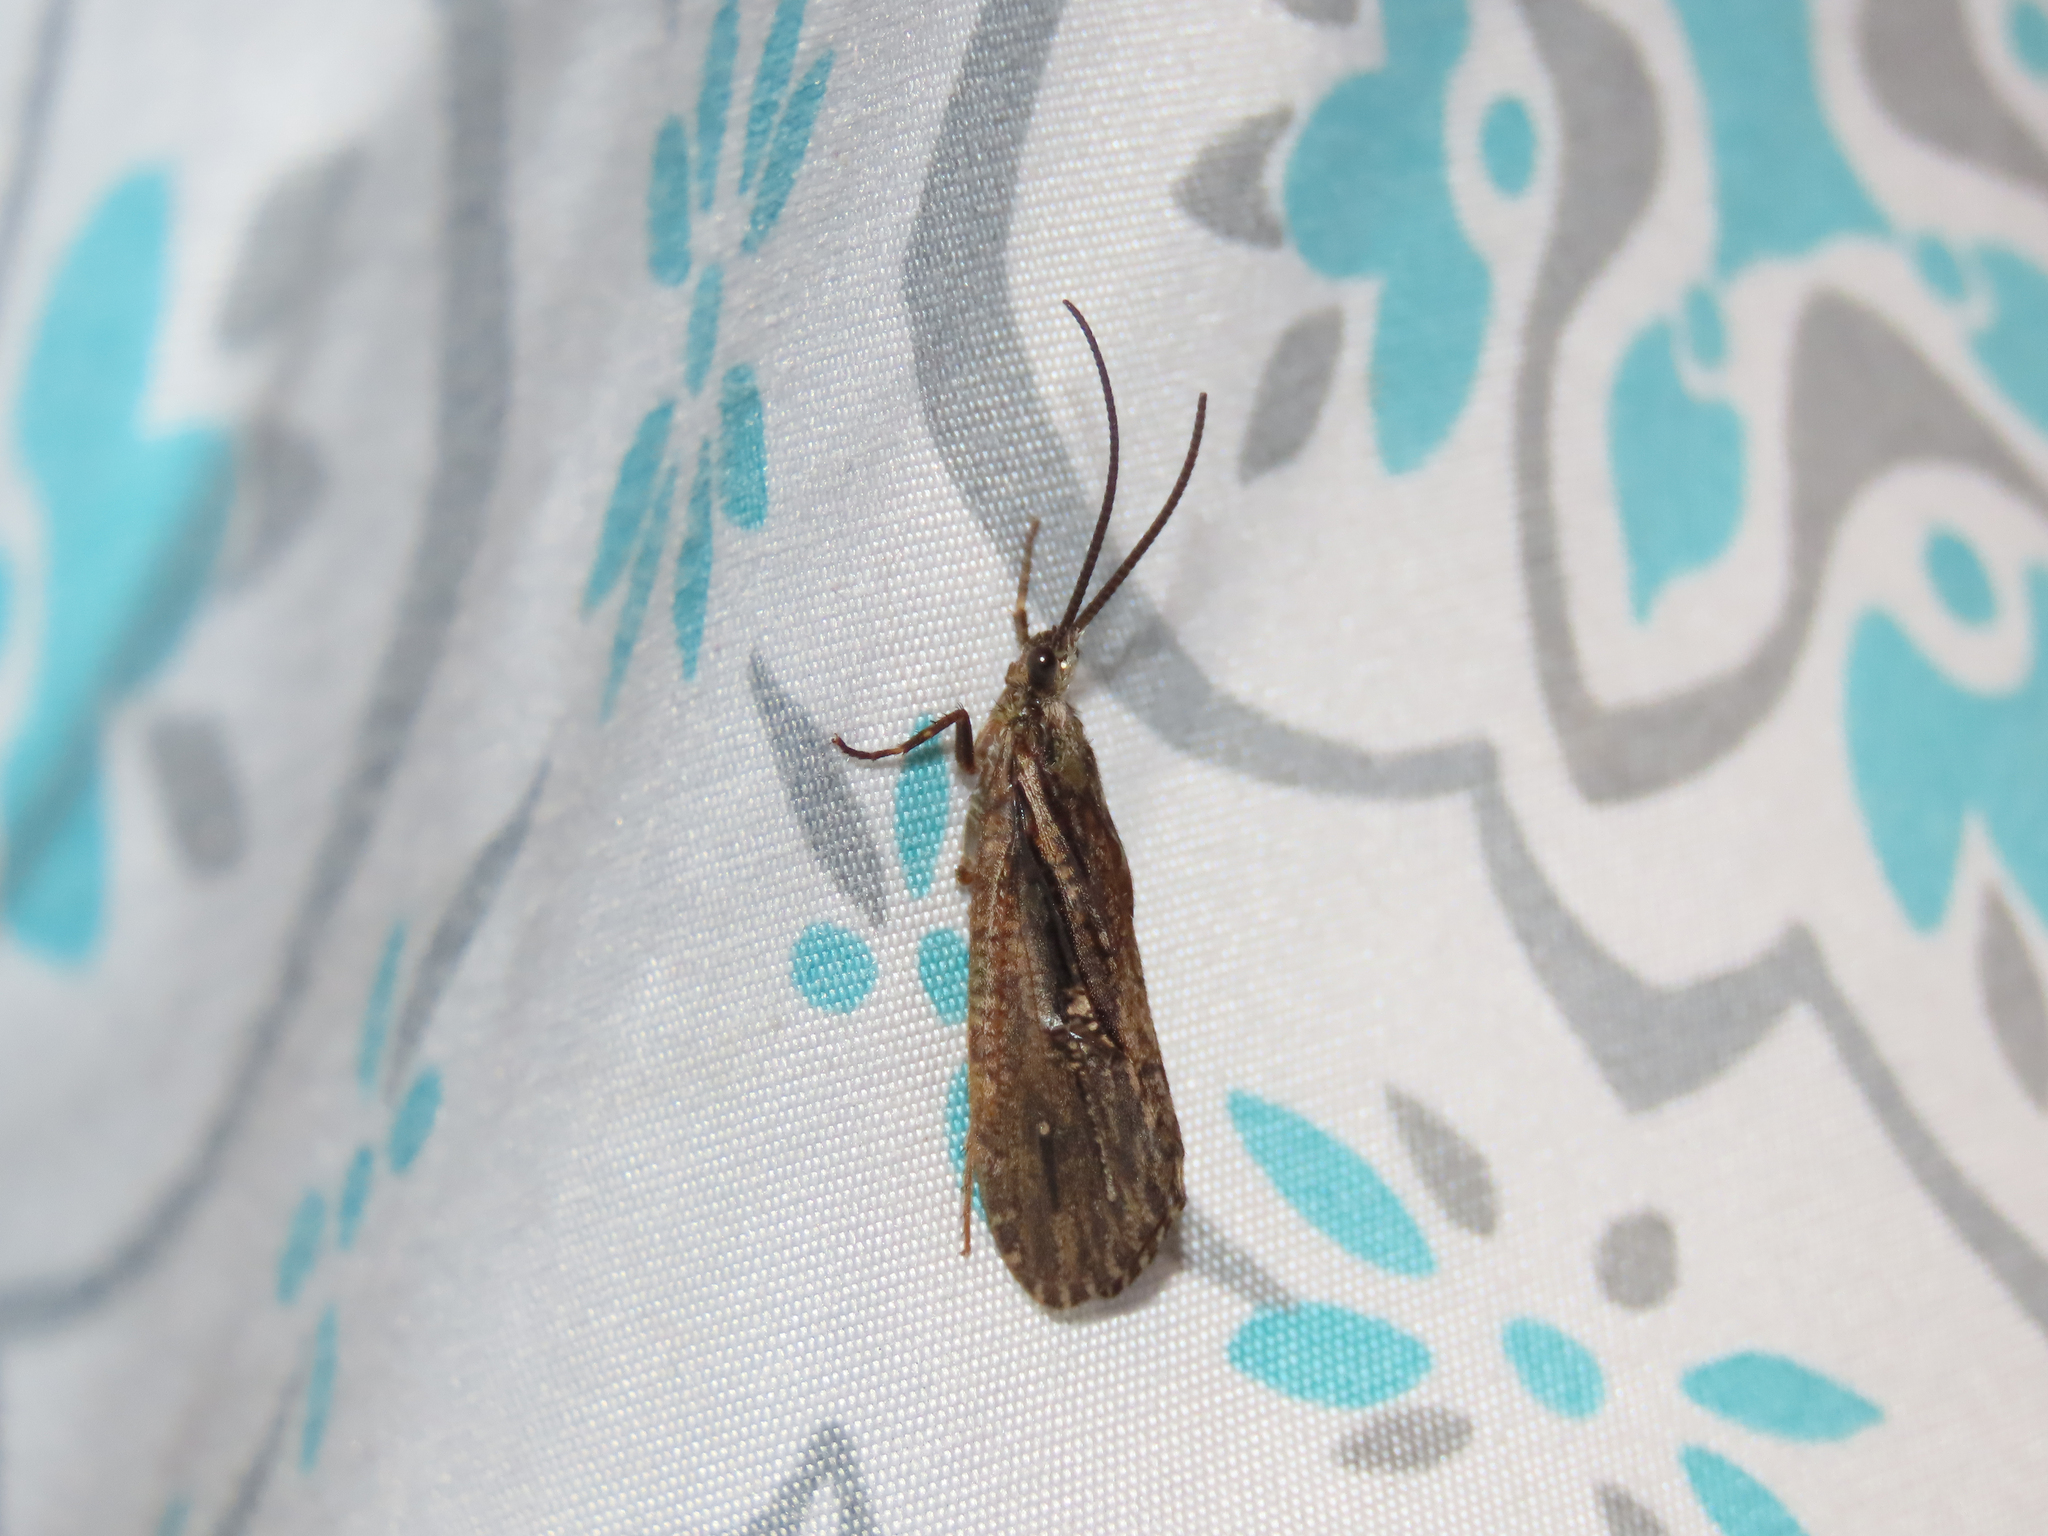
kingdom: Animalia
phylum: Arthropoda
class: Insecta
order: Trichoptera
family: Phryganeidae
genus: Phryganea
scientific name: Phryganea sayi
